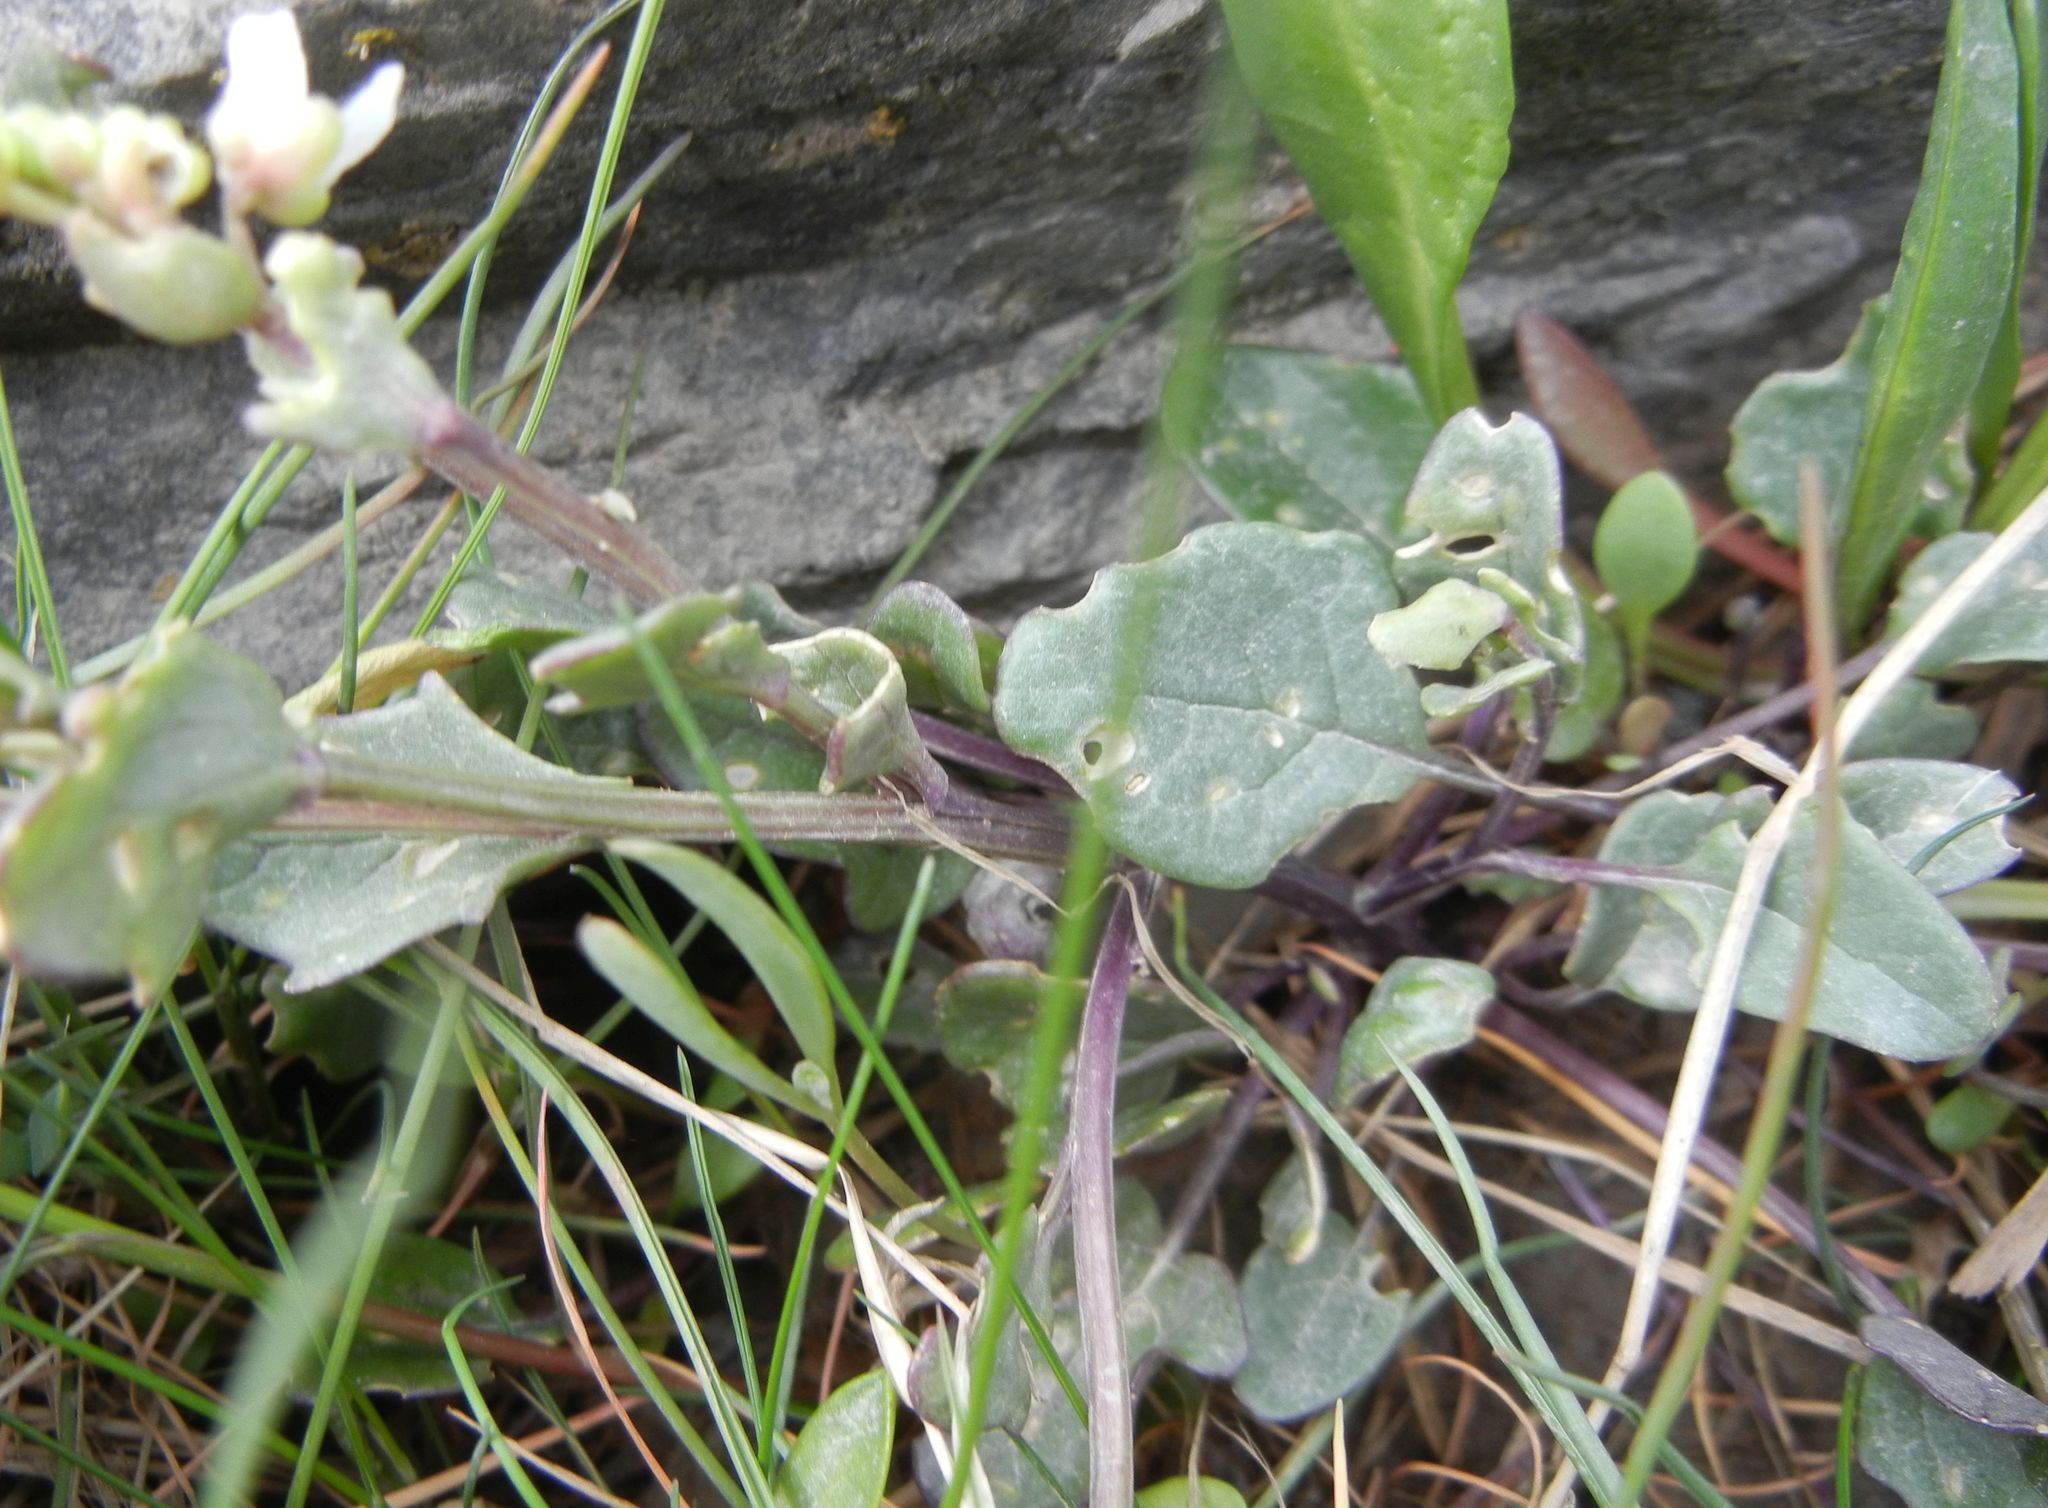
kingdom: Plantae
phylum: Tracheophyta
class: Magnoliopsida
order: Brassicales
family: Brassicaceae
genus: Cochlearia
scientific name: Cochlearia anglica
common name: English scurvygrass
